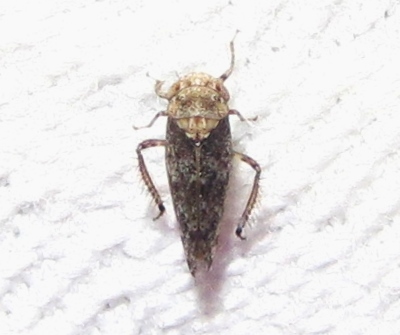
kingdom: Animalia
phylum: Arthropoda
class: Insecta
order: Hemiptera
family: Cicadellidae
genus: Paraphlepsius
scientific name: Paraphlepsius collitus
